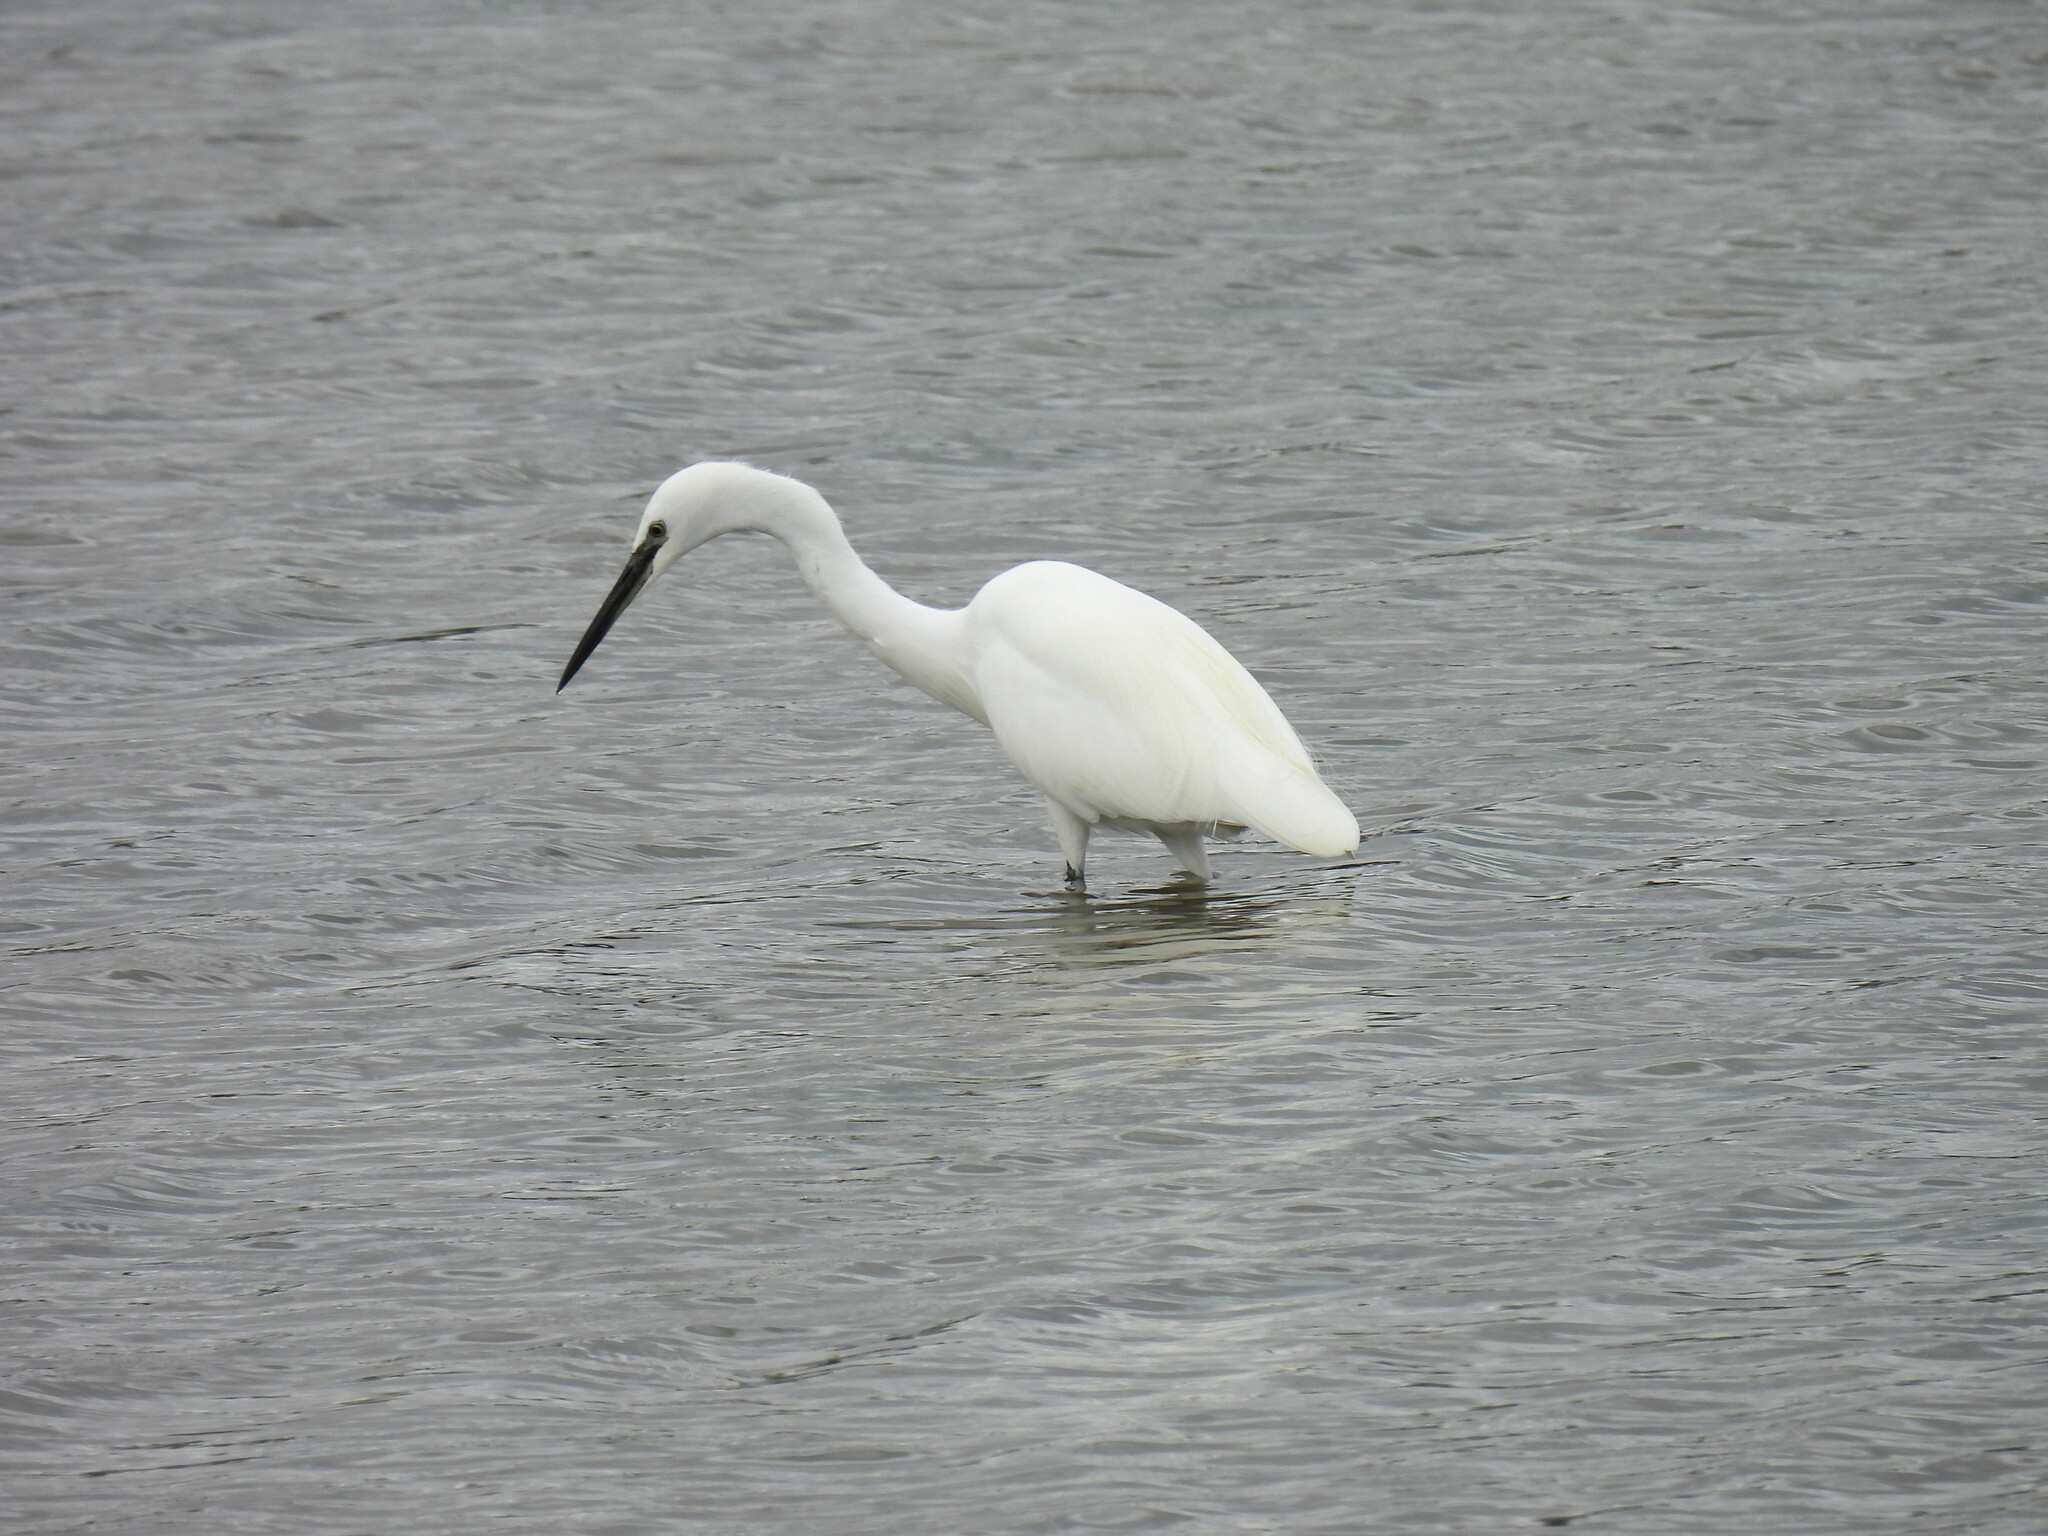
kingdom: Animalia
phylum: Chordata
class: Aves
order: Pelecaniformes
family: Ardeidae
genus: Egretta
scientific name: Egretta garzetta
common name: Little egret
